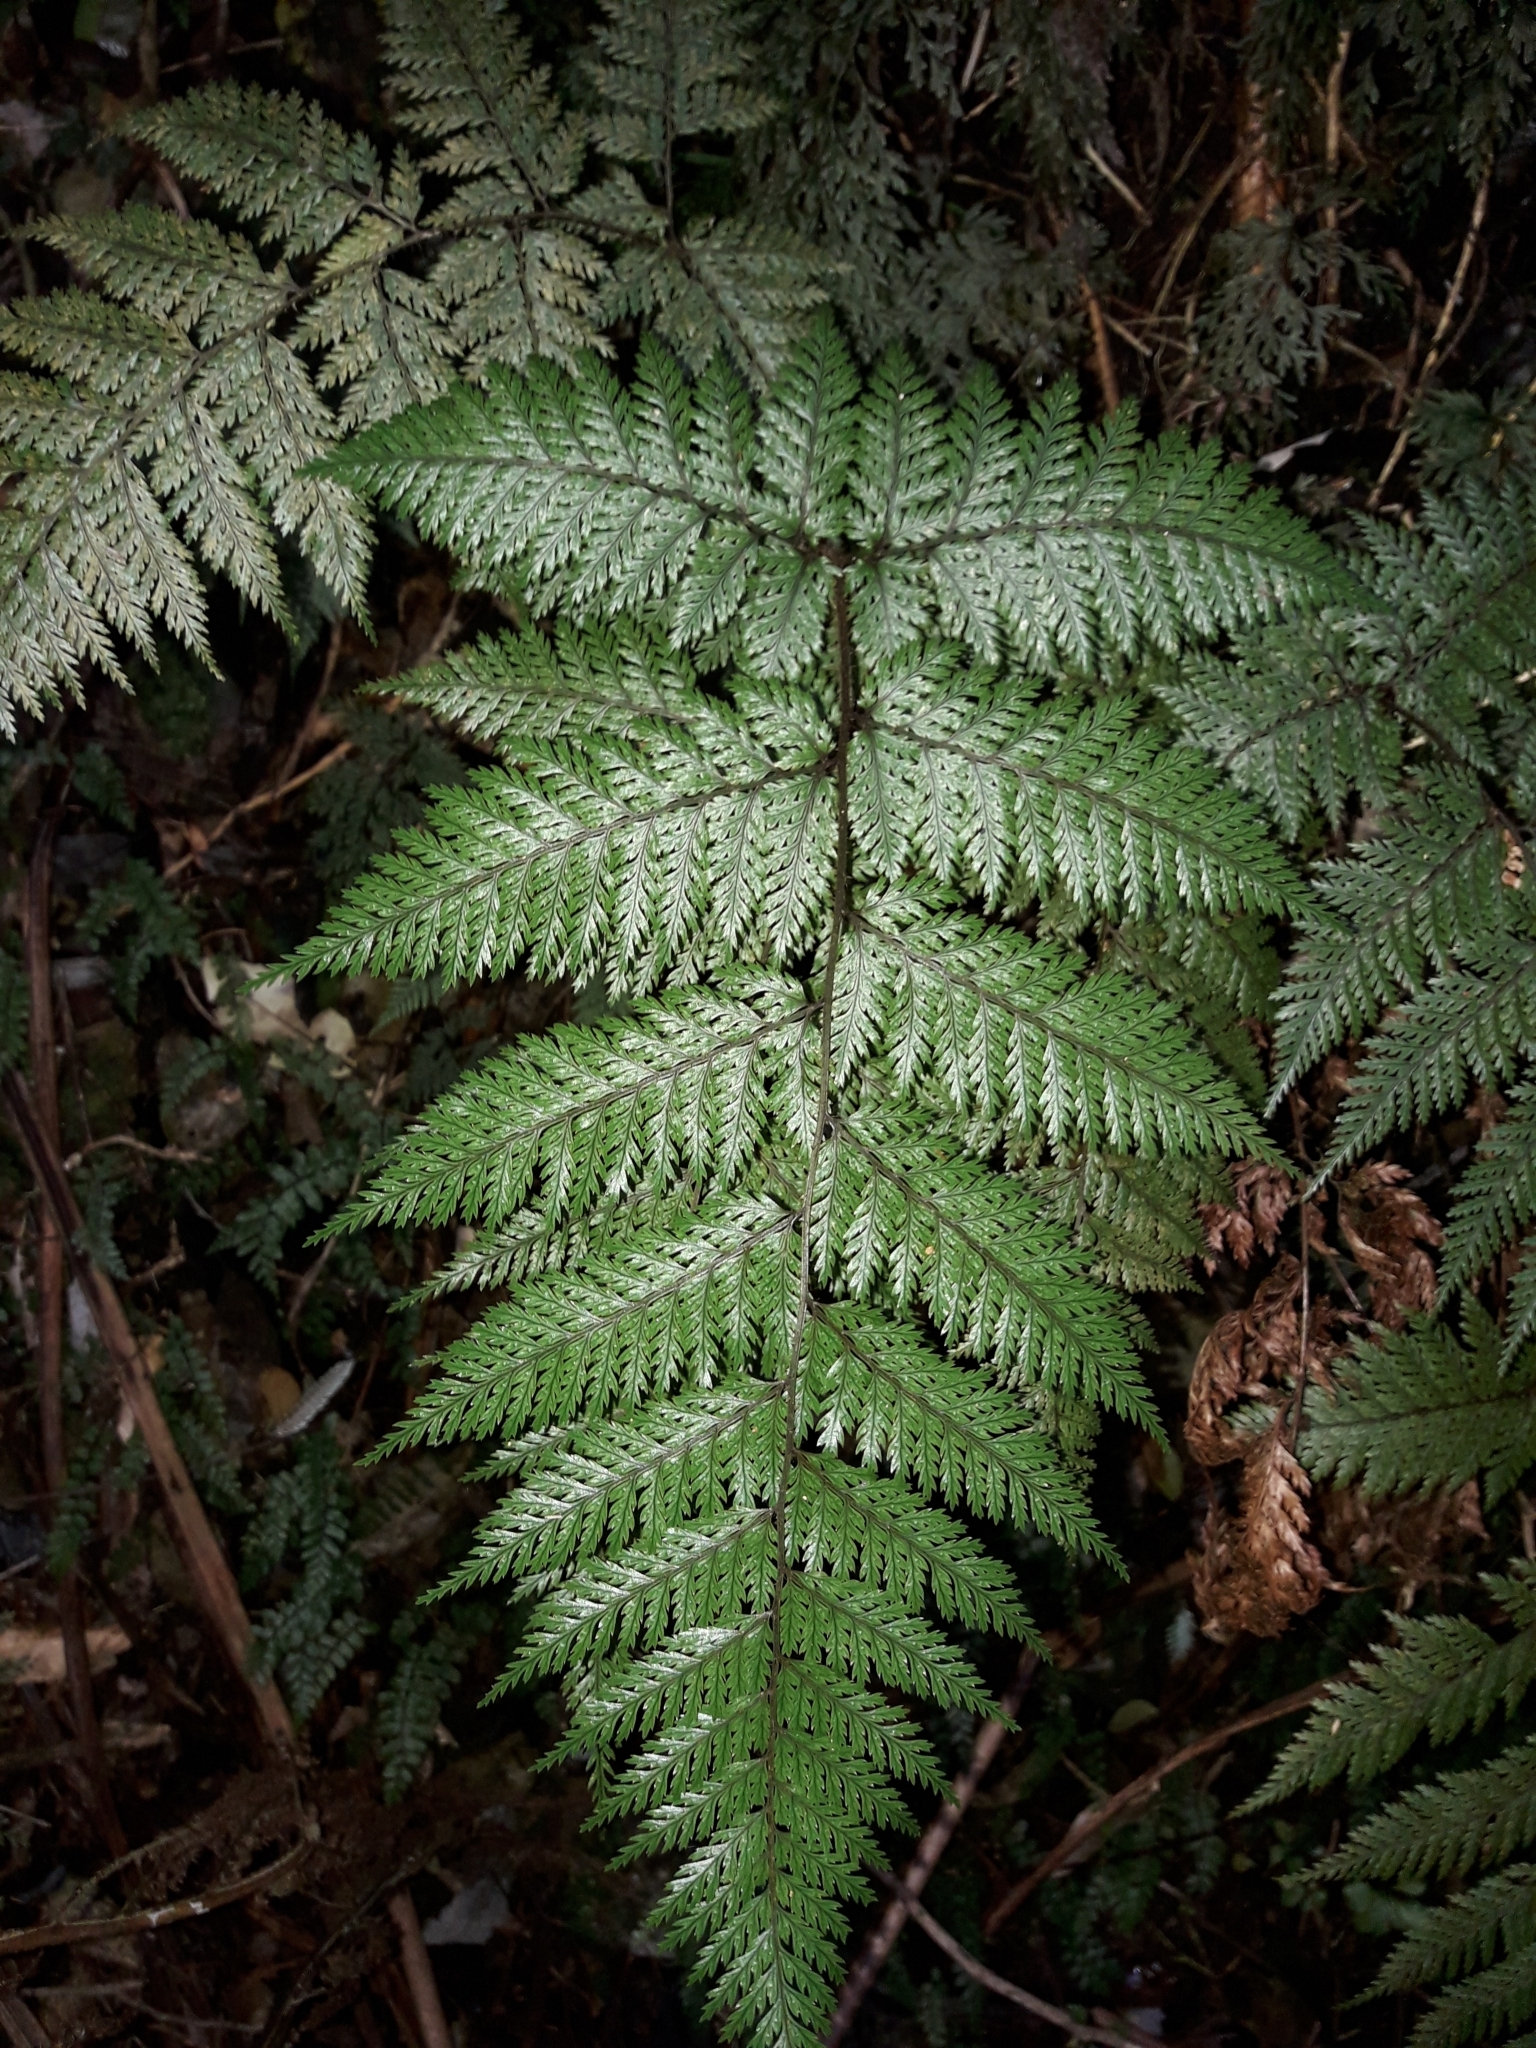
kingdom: Plantae
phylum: Tracheophyta
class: Polypodiopsida
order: Polypodiales
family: Dryopteridaceae
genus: Lastreopsis
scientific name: Lastreopsis hispida
